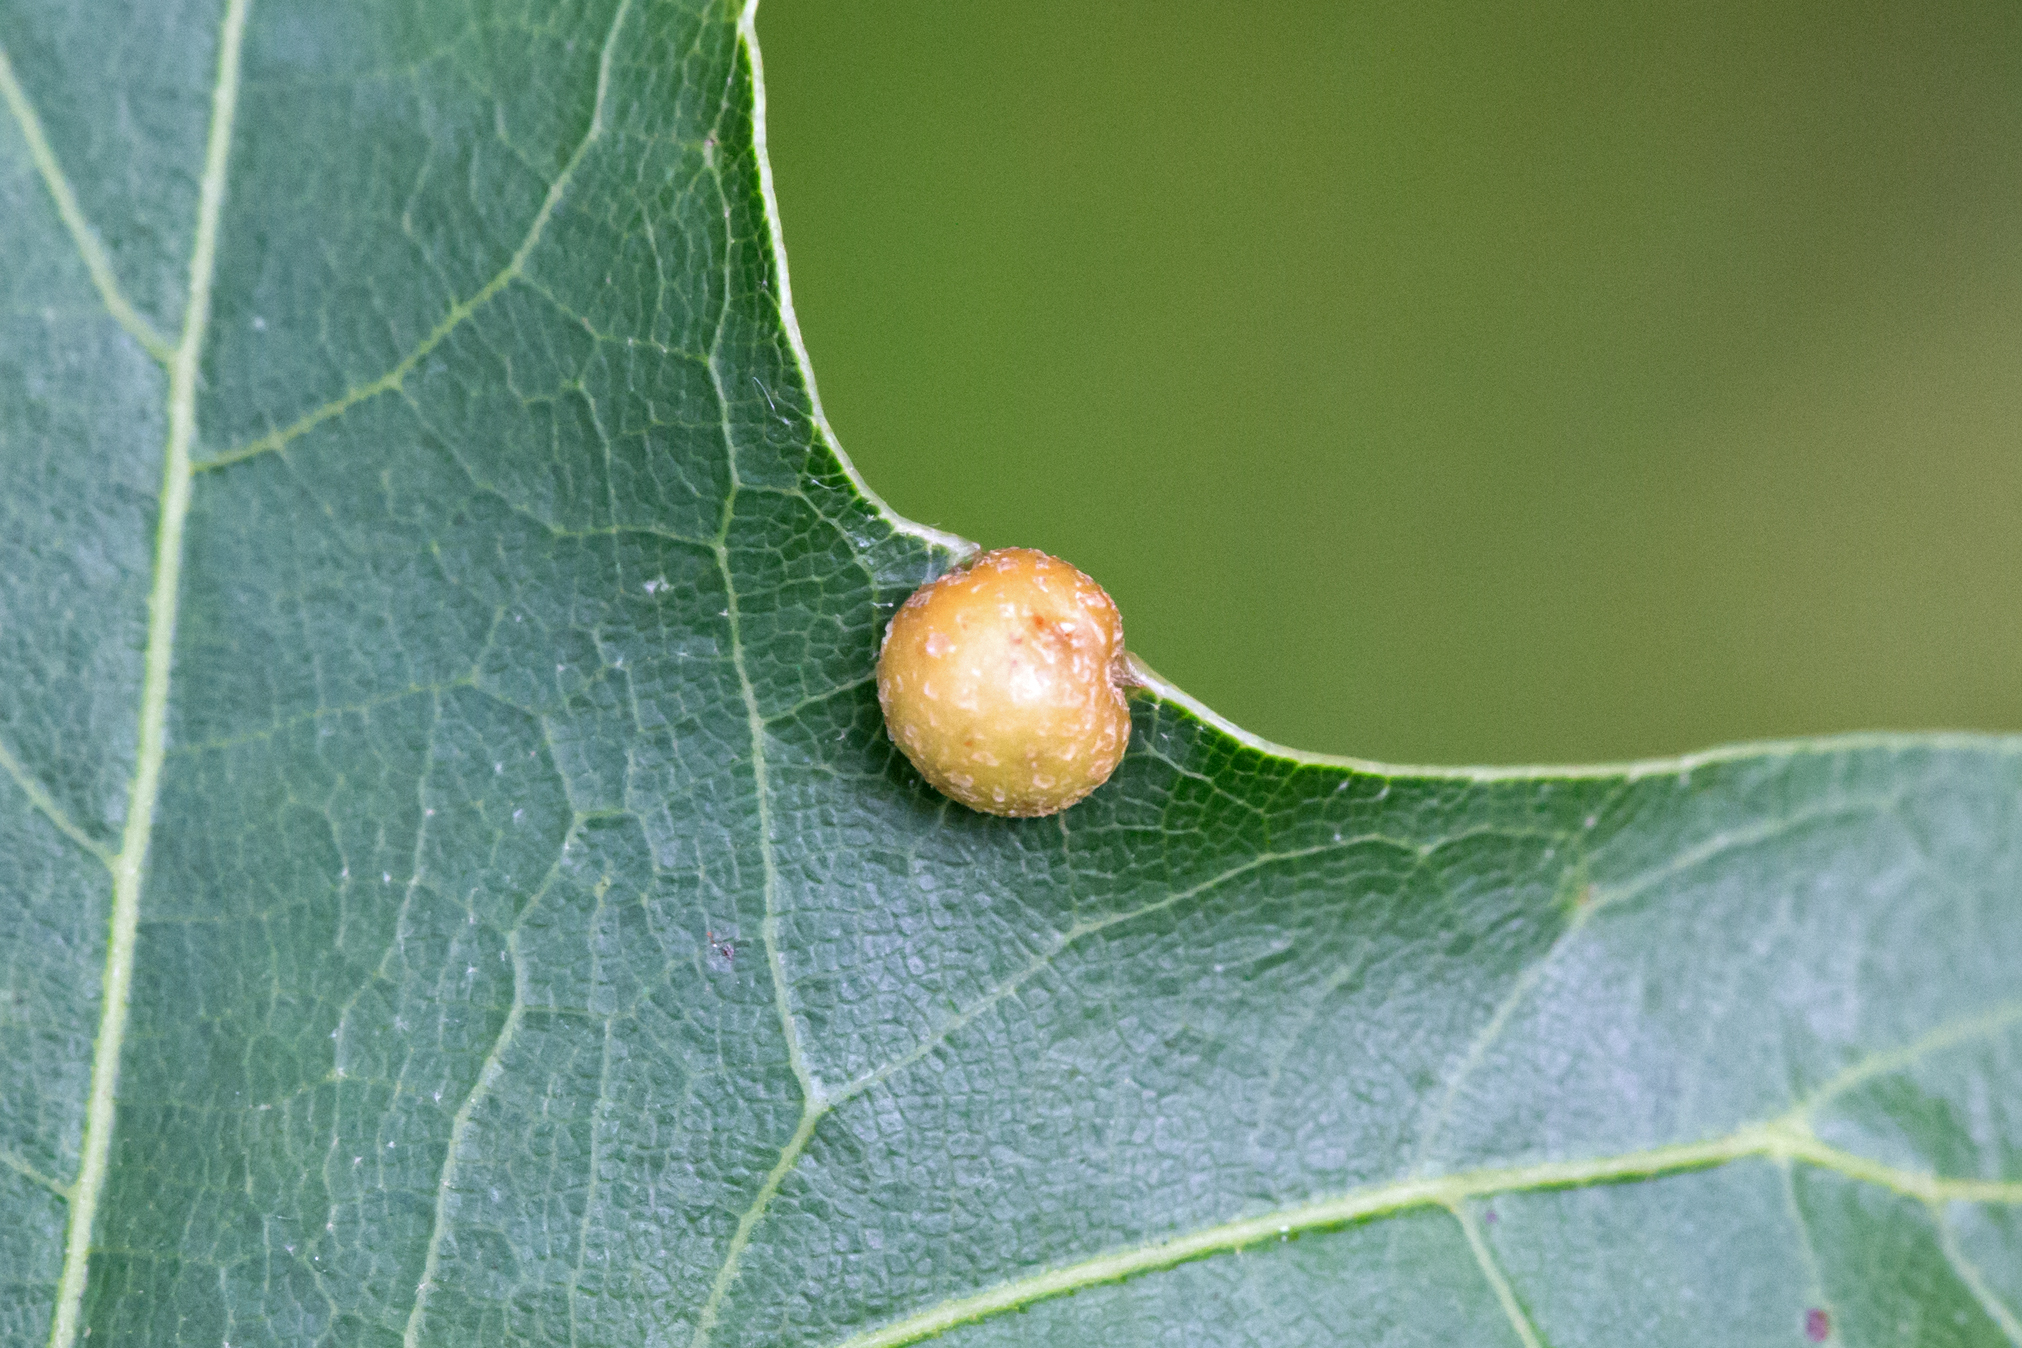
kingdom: Animalia
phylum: Arthropoda
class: Insecta
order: Diptera
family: Cecidomyiidae
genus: Polystepha
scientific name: Polystepha pilulae
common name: Oak leaf gall midge
